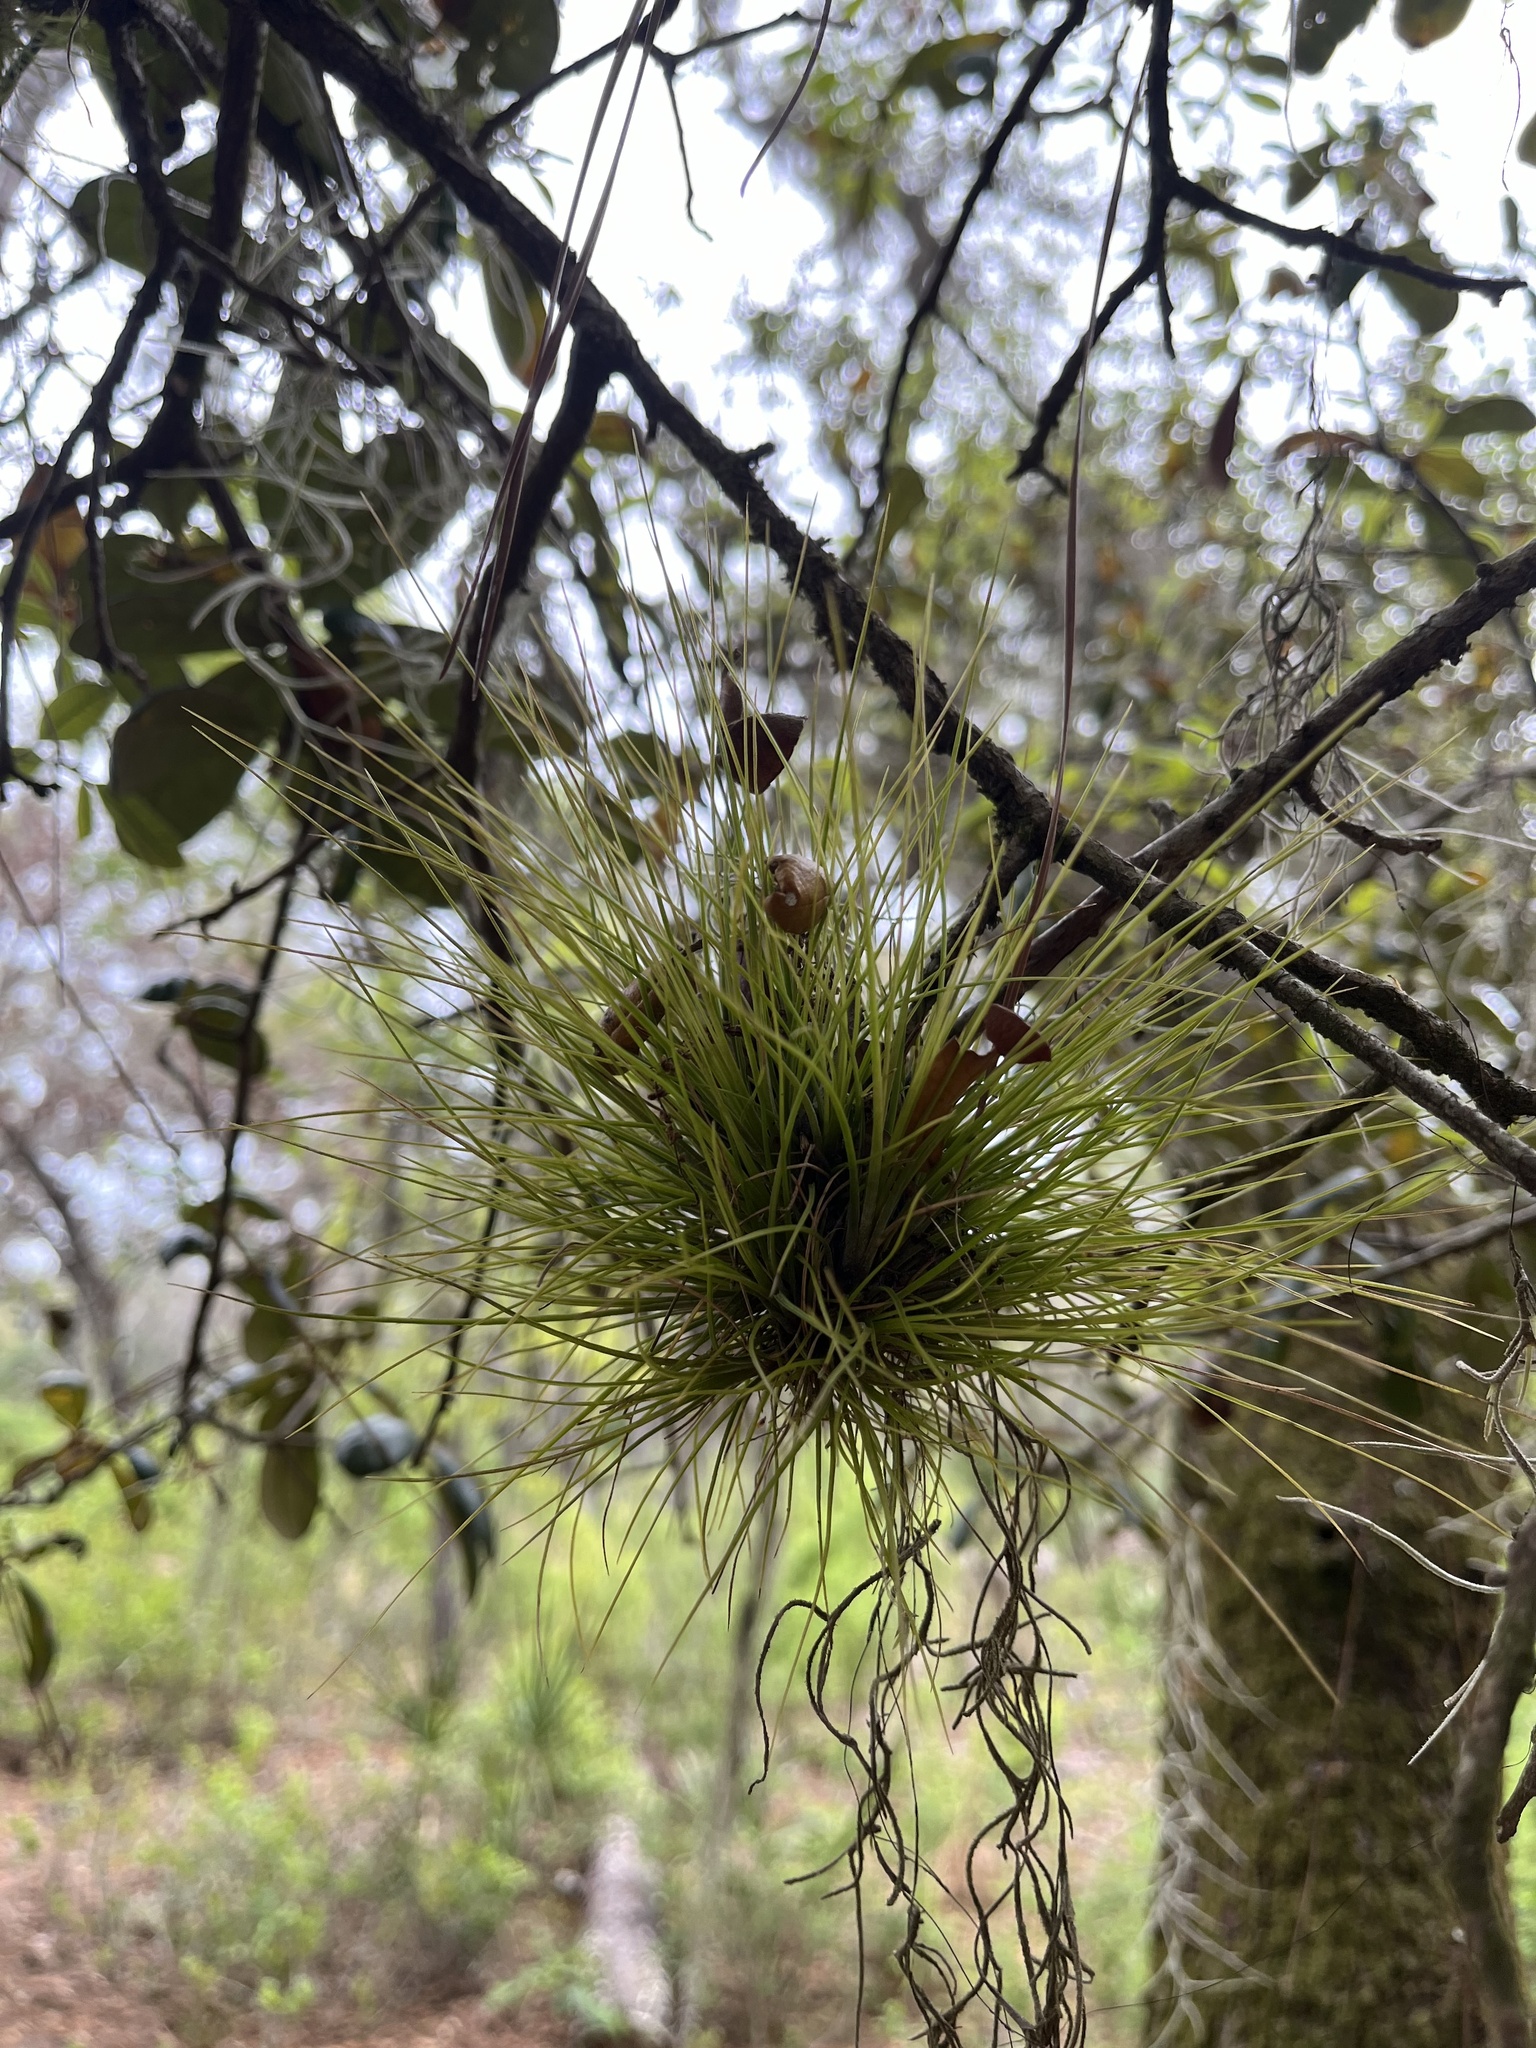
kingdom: Plantae
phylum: Tracheophyta
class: Liliopsida
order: Poales
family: Bromeliaceae
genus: Tillandsia
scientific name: Tillandsia setacea
